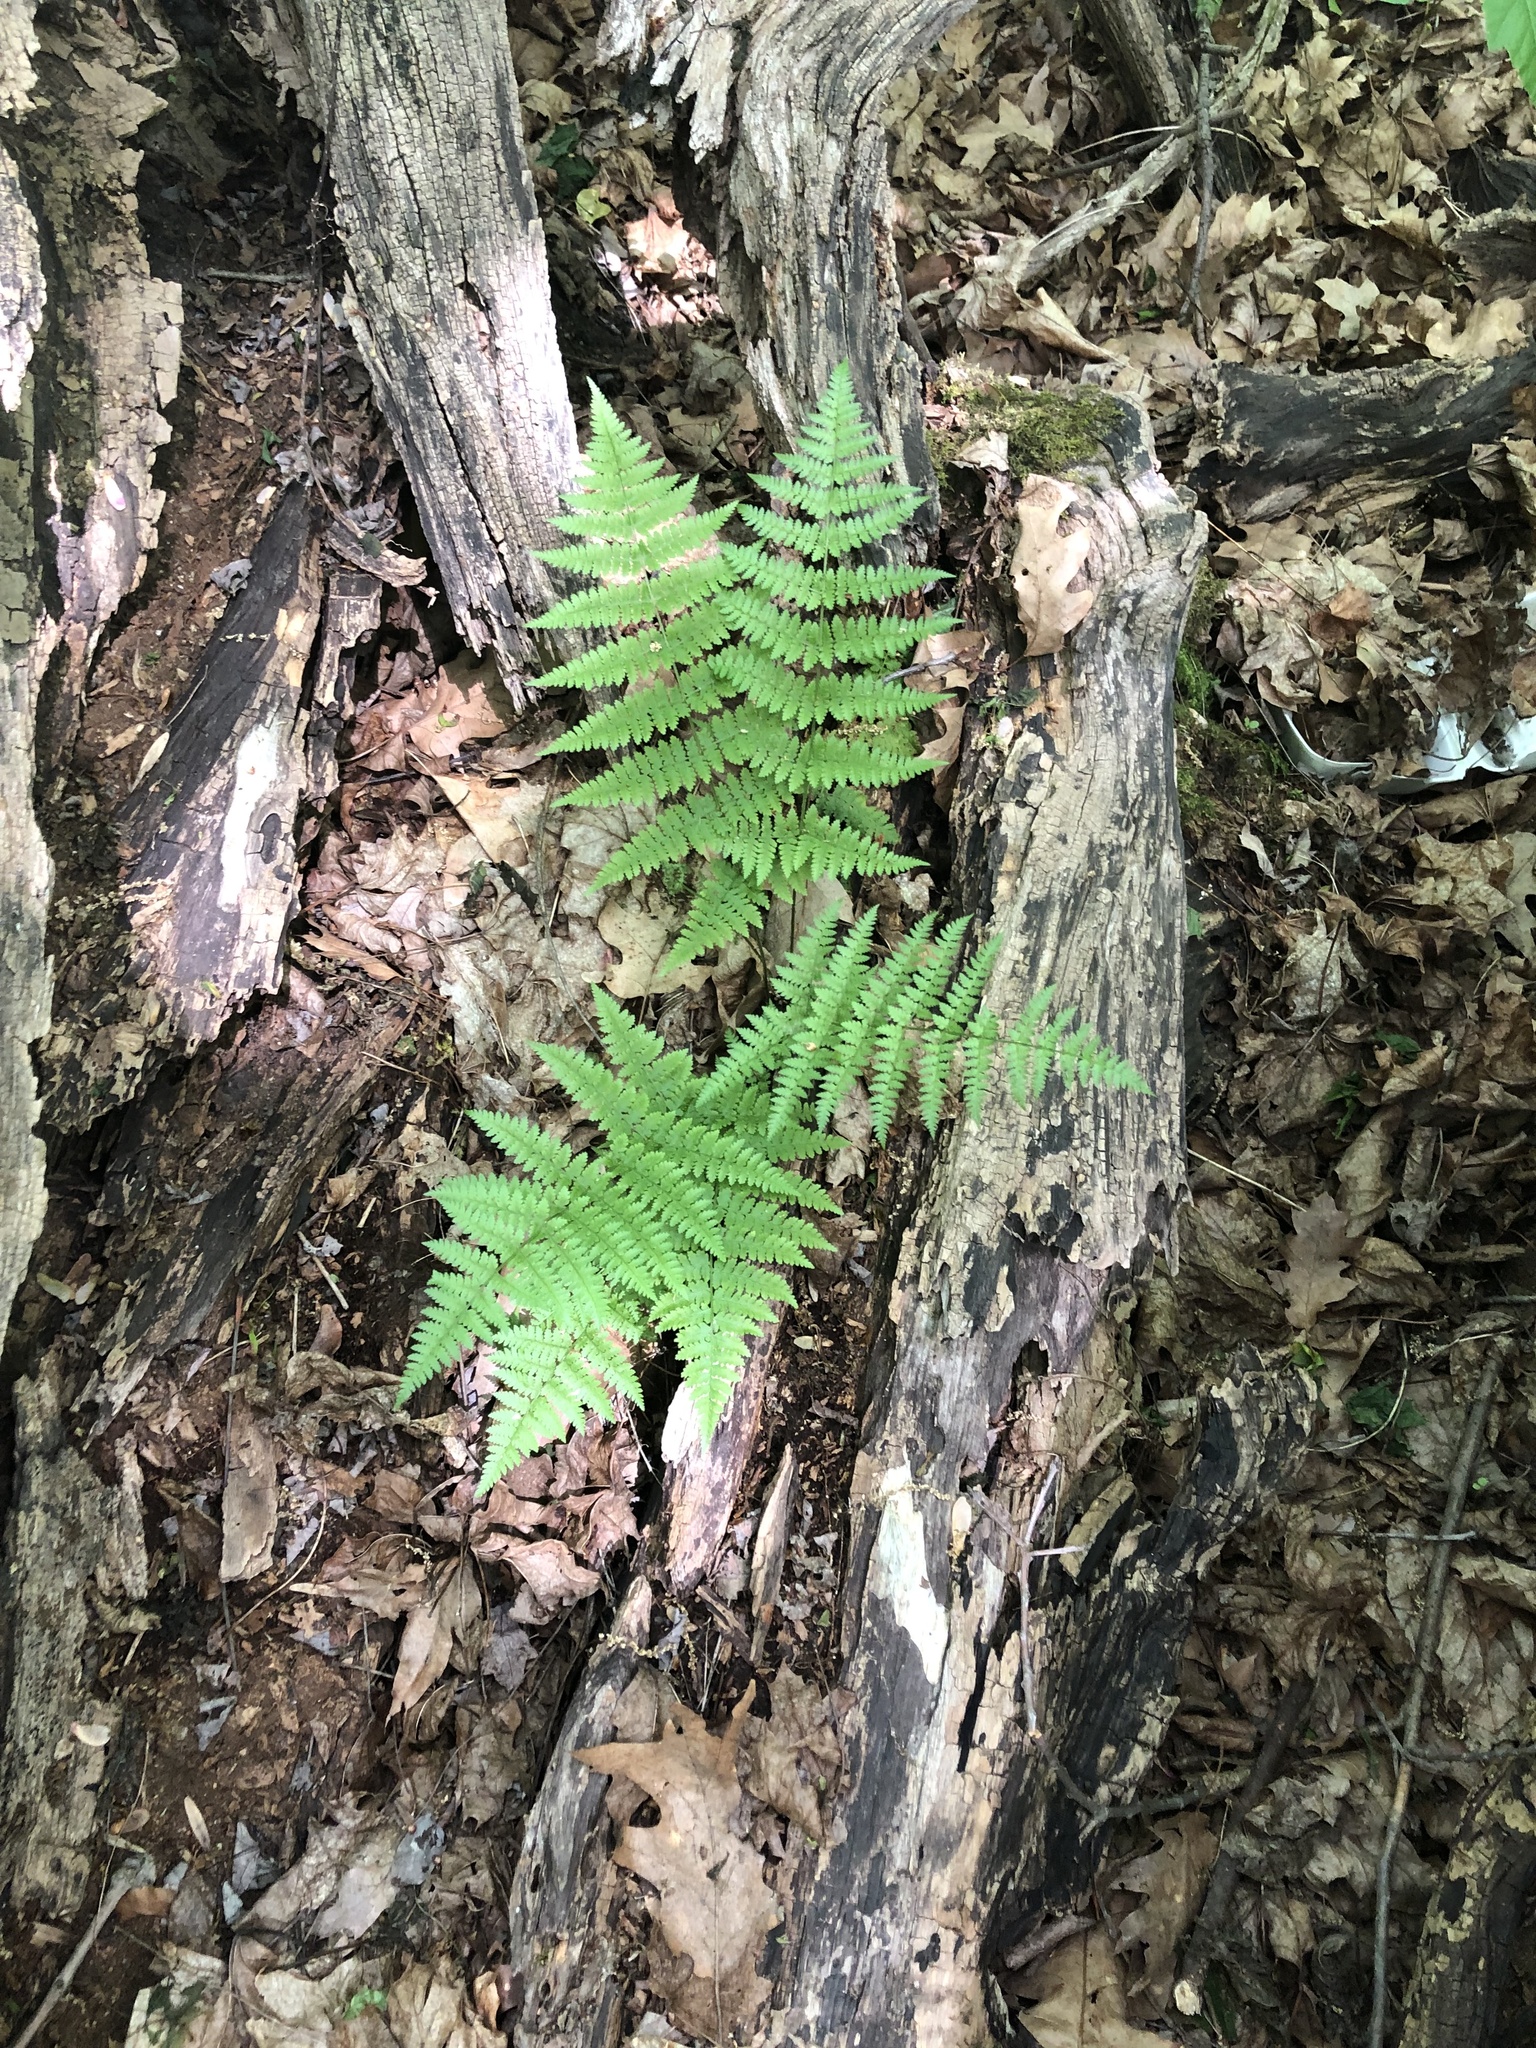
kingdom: Plantae
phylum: Tracheophyta
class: Polypodiopsida
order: Polypodiales
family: Dryopteridaceae
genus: Dryopteris
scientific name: Dryopteris intermedia
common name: Evergreen wood fern
